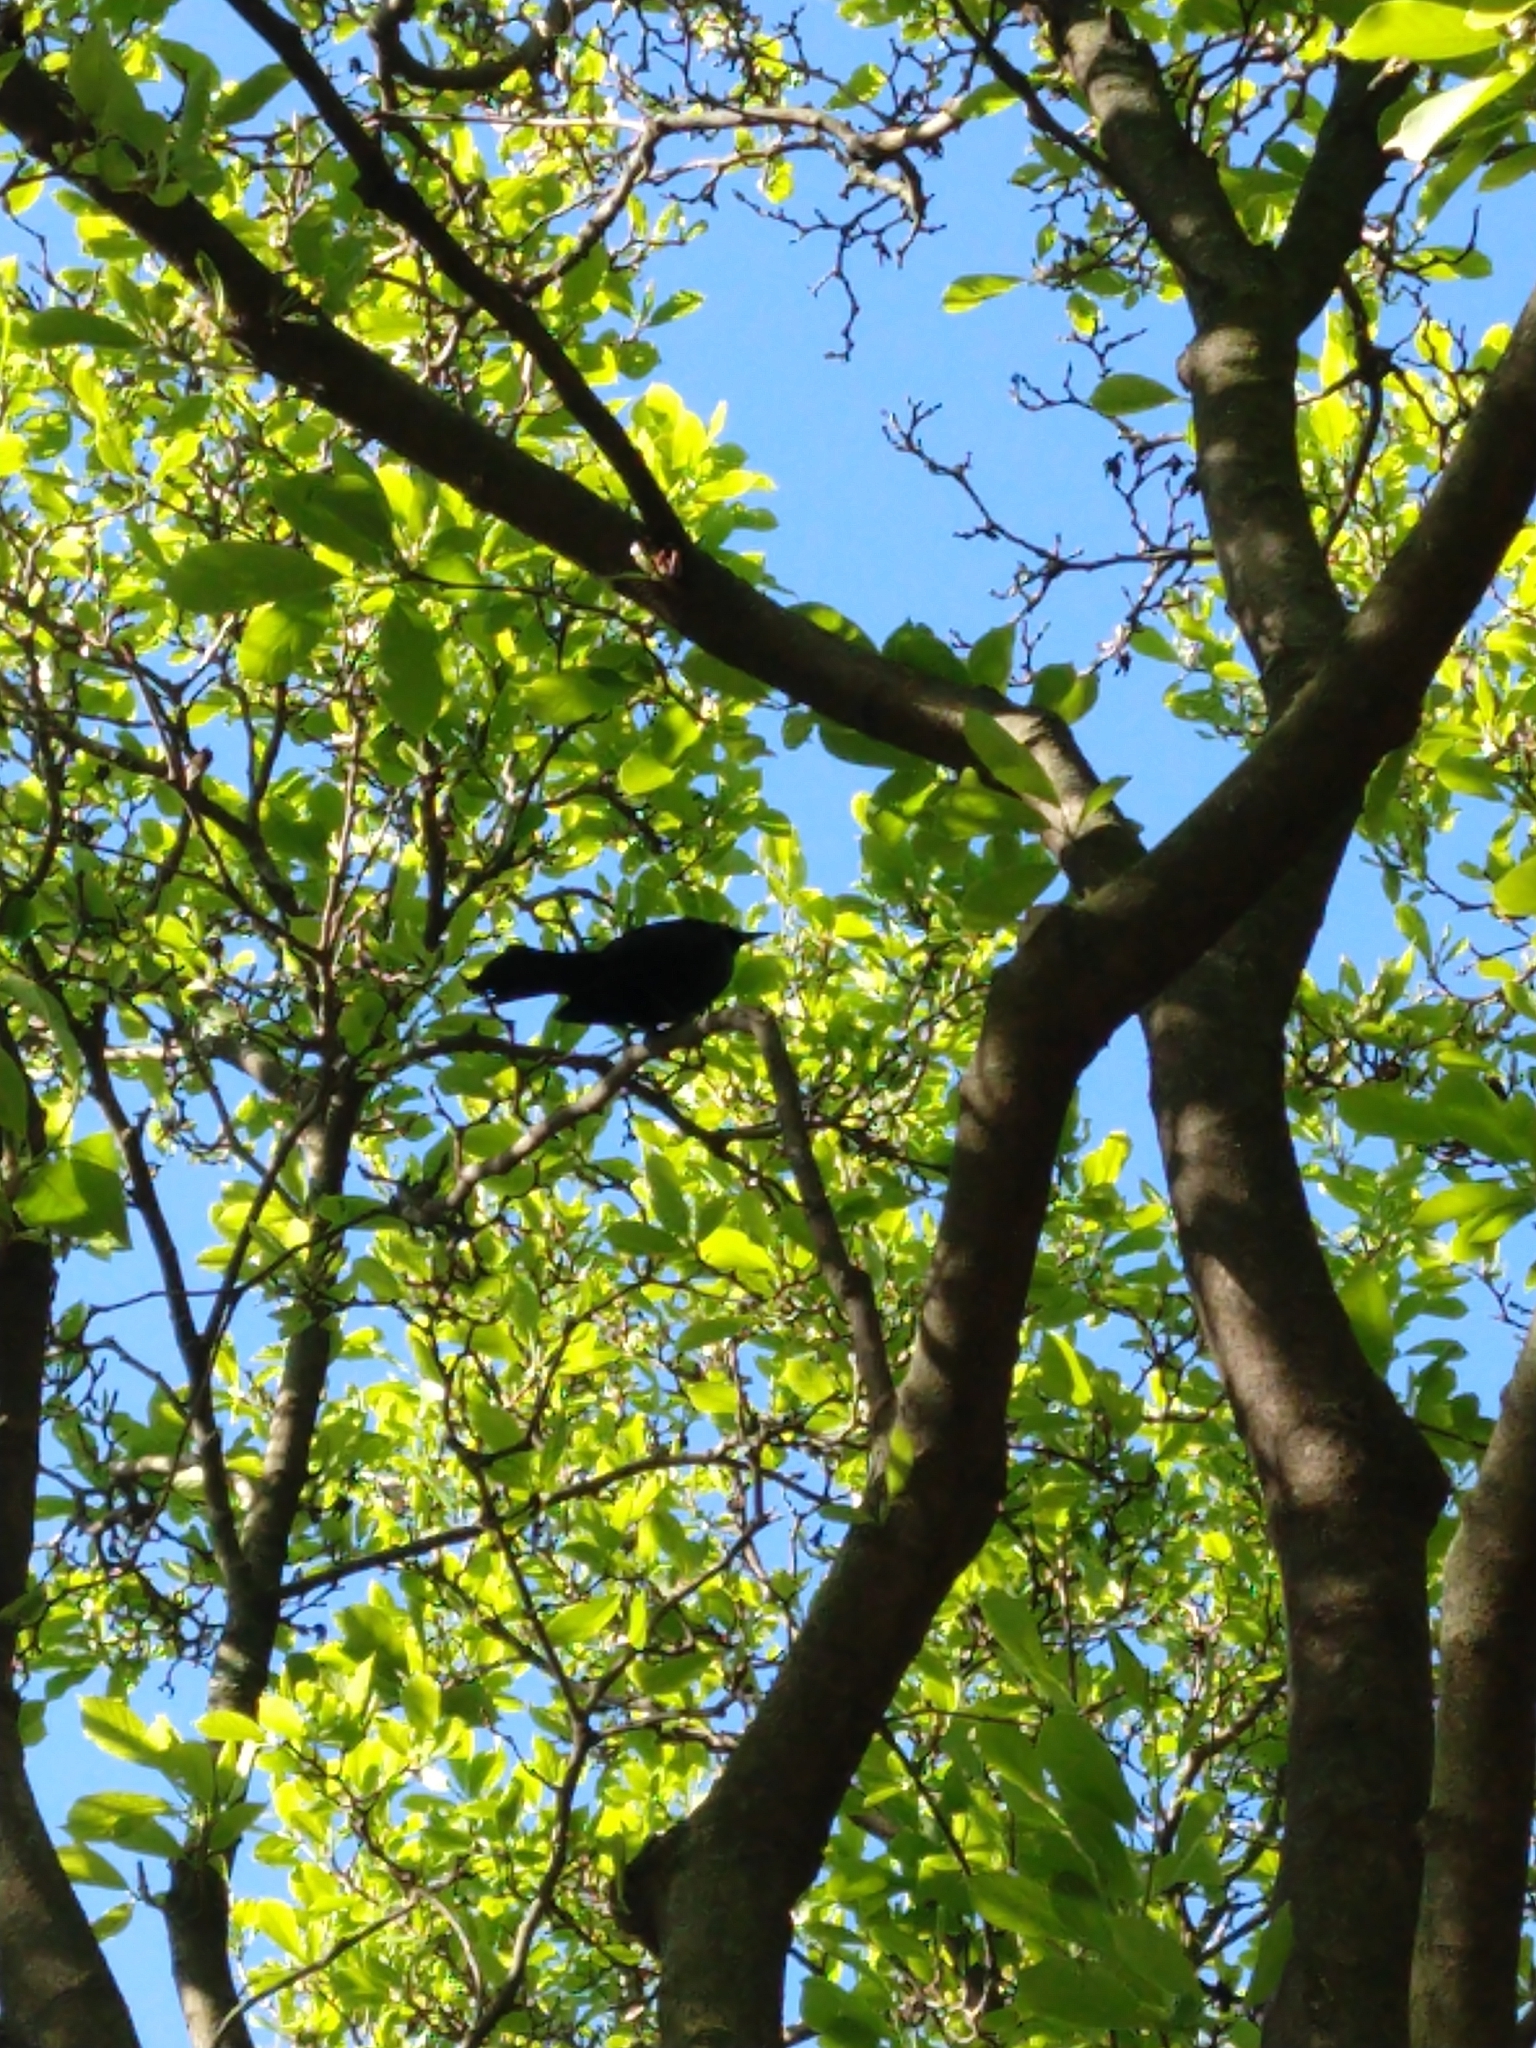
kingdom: Animalia
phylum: Chordata
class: Aves
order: Passeriformes
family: Icteridae
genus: Quiscalus
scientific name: Quiscalus quiscula
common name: Common grackle
